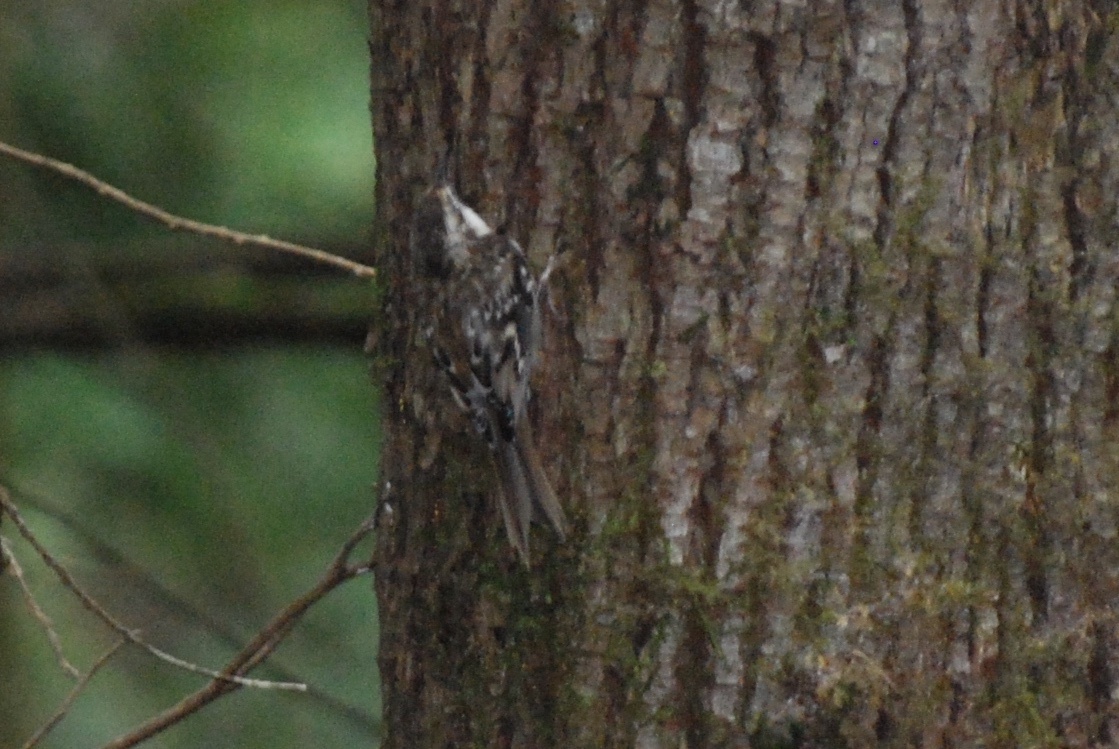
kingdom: Animalia
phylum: Chordata
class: Aves
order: Passeriformes
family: Certhiidae
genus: Certhia
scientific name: Certhia americana
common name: Brown creeper
